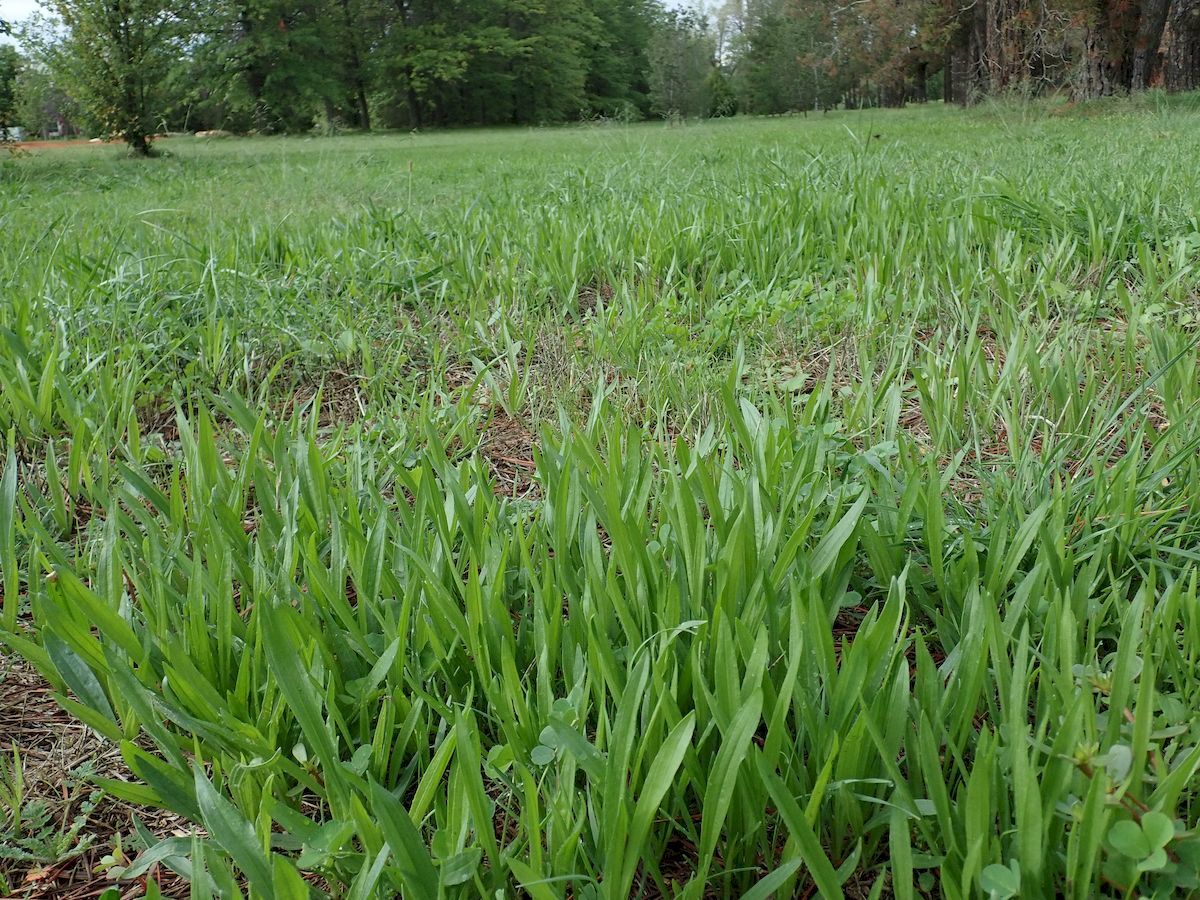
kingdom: Plantae
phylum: Tracheophyta
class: Magnoliopsida
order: Lamiales
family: Plantaginaceae
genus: Plantago
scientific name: Plantago lanceolata
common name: Ribwort plantain
